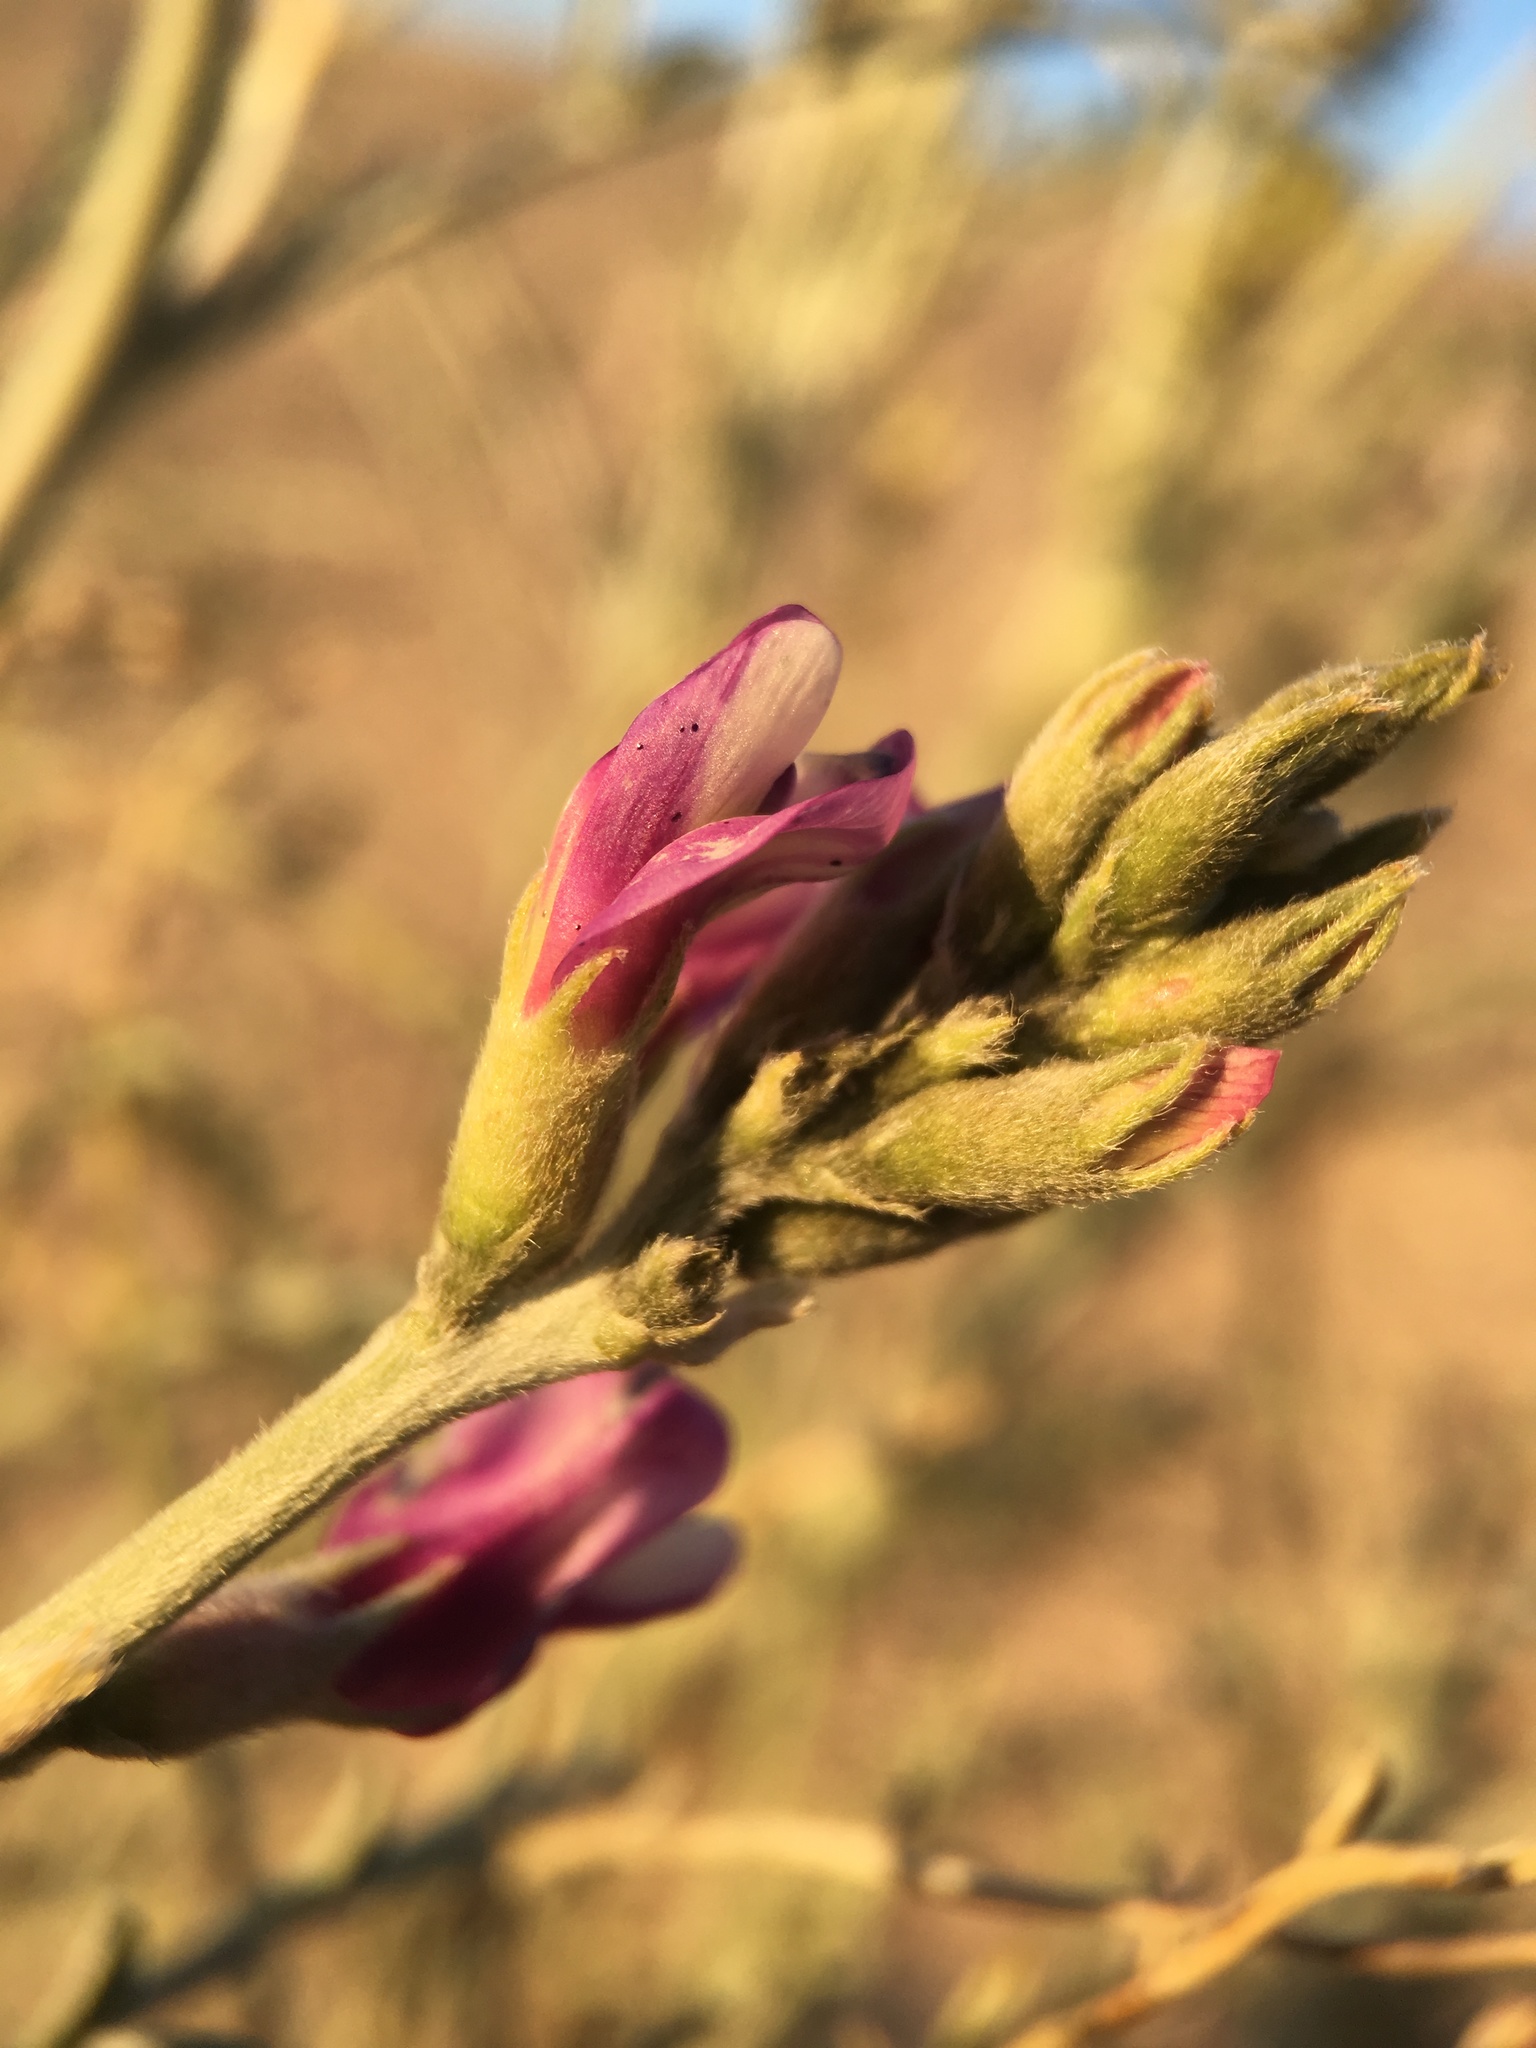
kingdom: Plantae
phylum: Tracheophyta
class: Magnoliopsida
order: Fabales
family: Fabaceae
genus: Astragalus
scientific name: Astragalus magdalenae
